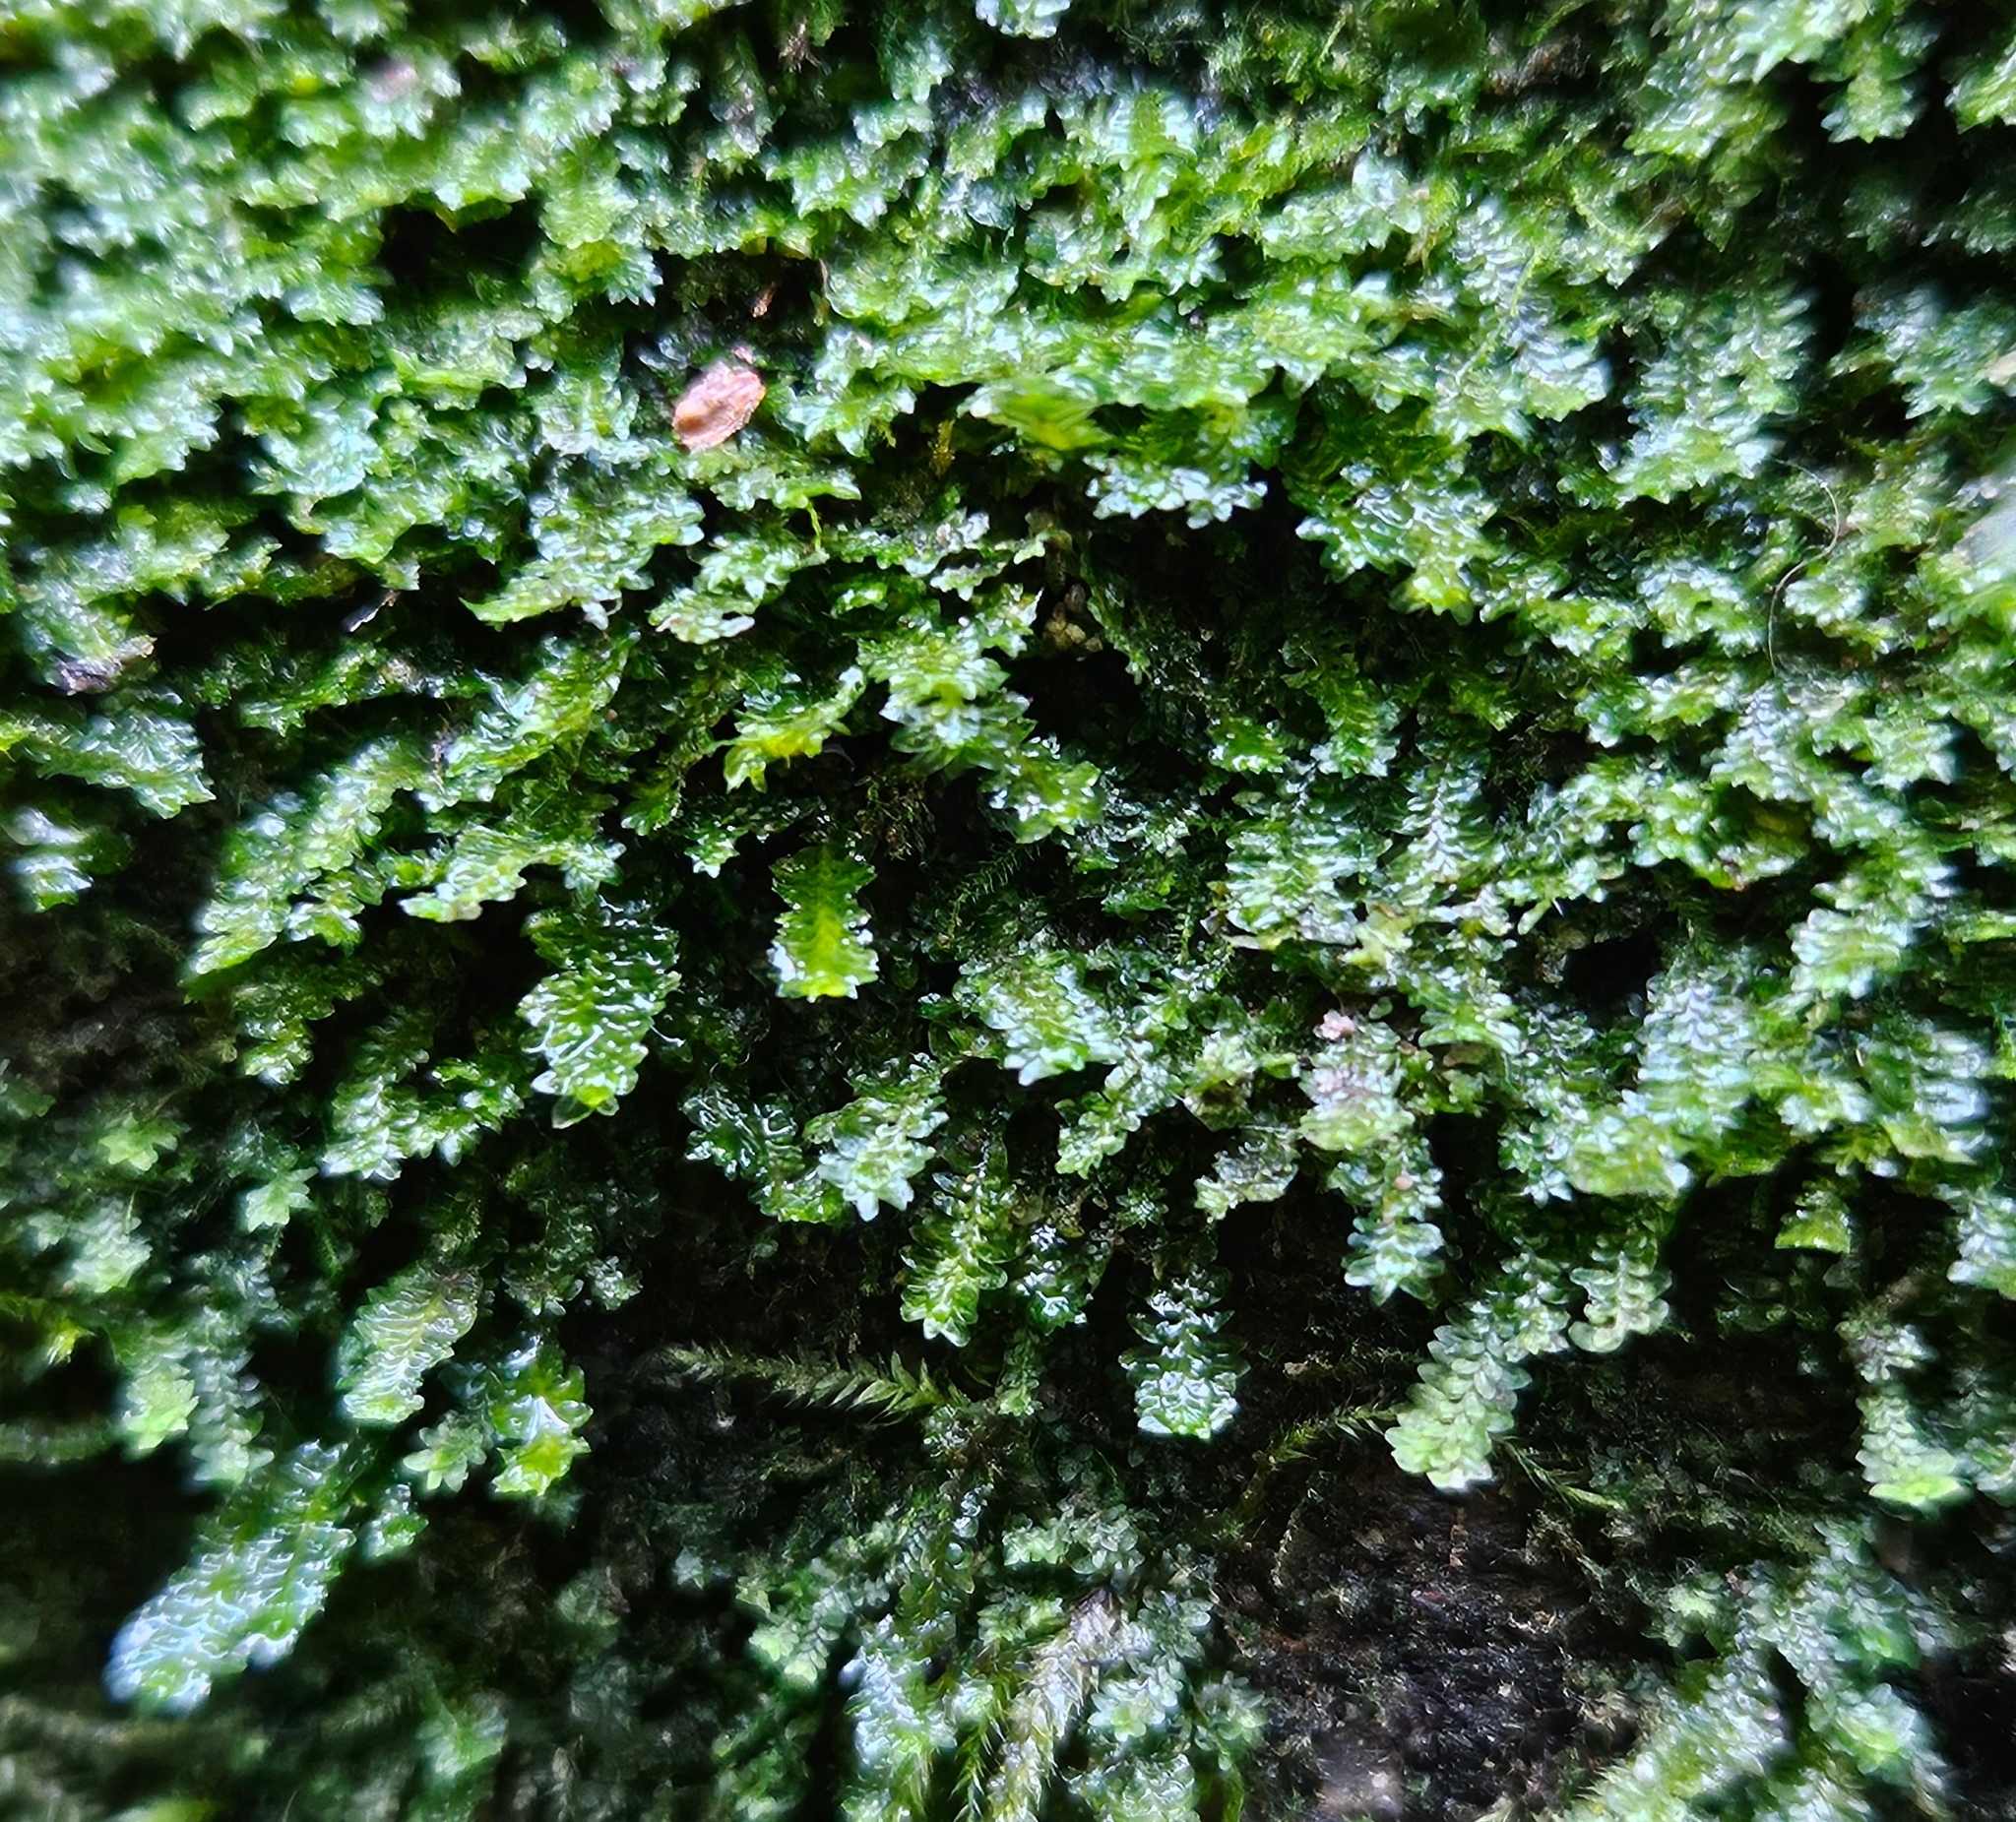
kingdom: Plantae
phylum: Marchantiophyta
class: Jungermanniopsida
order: Jungermanniales
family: Scapaniaceae
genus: Diplophyllum
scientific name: Diplophyllum albicans
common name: White earwort
